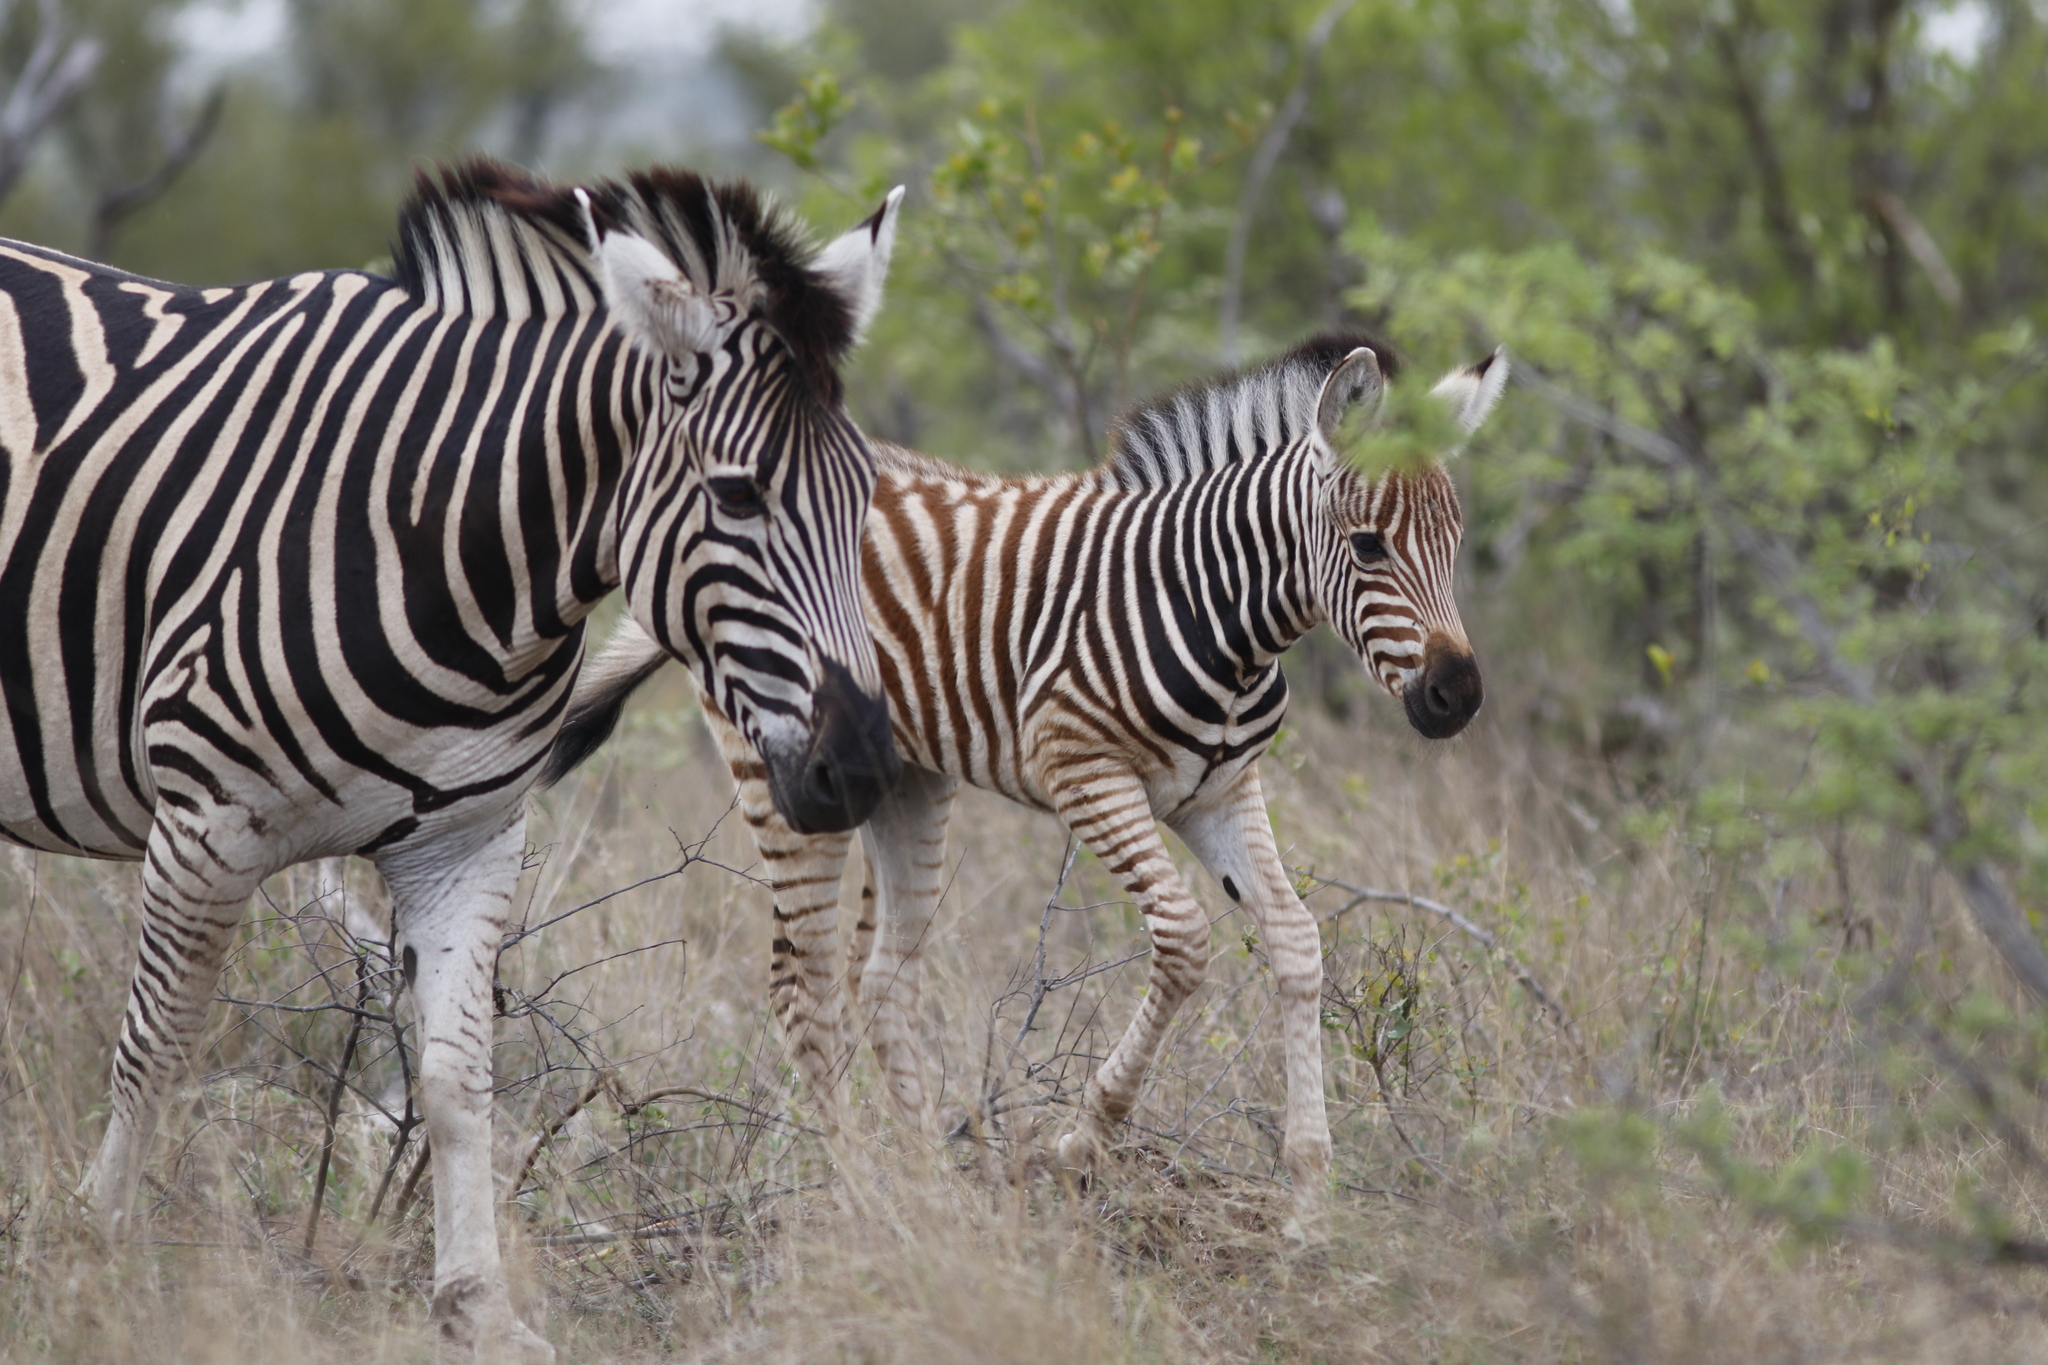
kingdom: Animalia
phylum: Chordata
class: Mammalia
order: Perissodactyla
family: Equidae
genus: Equus
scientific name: Equus quagga
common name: Plains zebra
